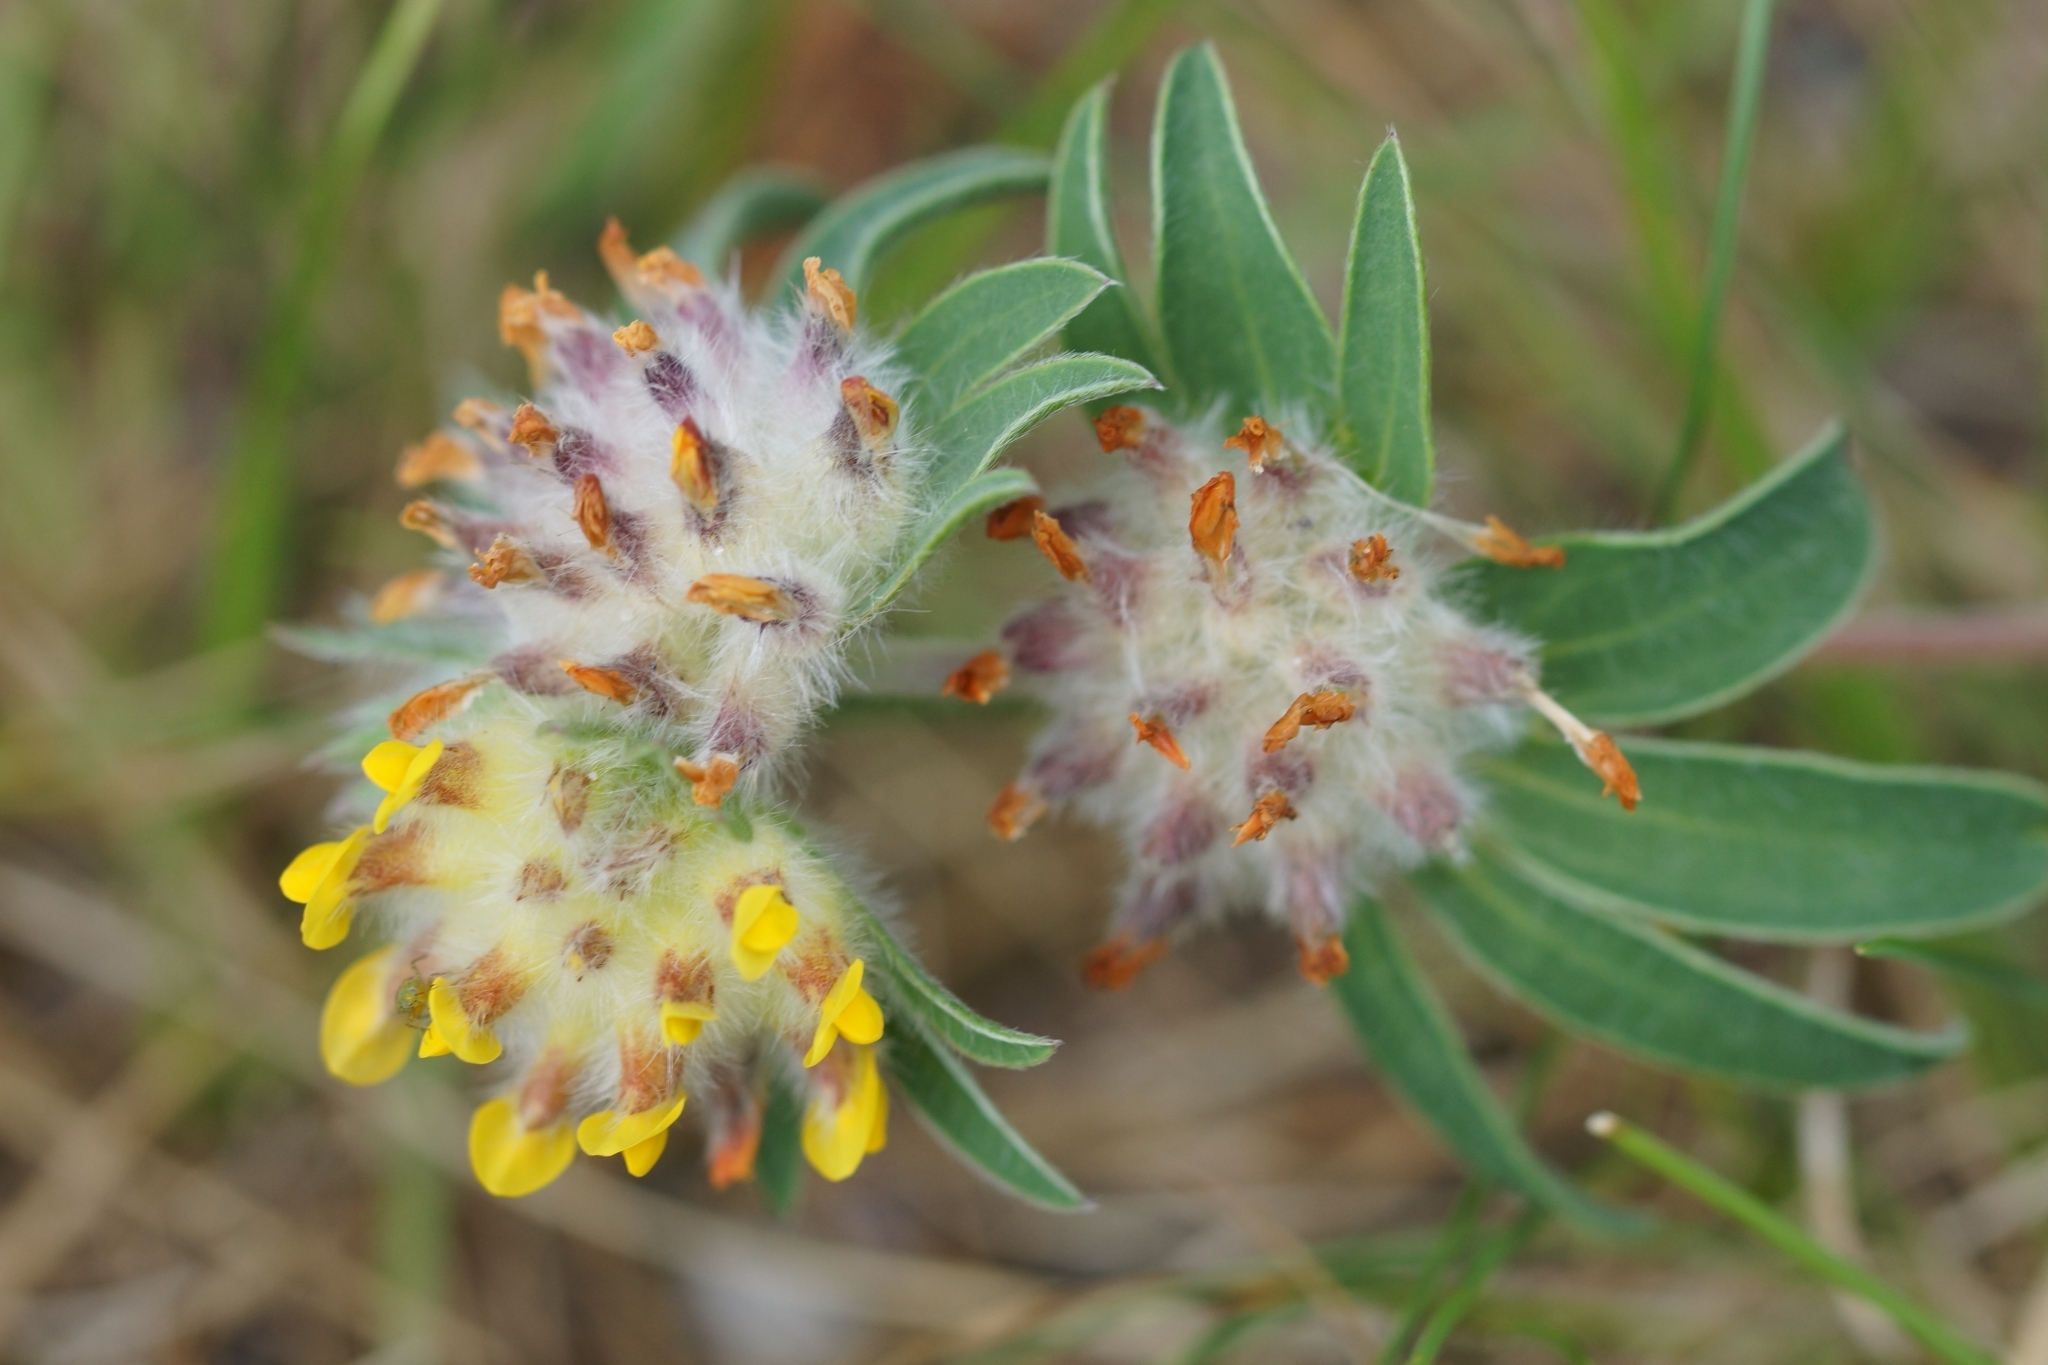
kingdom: Plantae
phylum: Tracheophyta
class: Magnoliopsida
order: Fabales
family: Fabaceae
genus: Anthyllis
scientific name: Anthyllis vulneraria
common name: Kidney vetch
